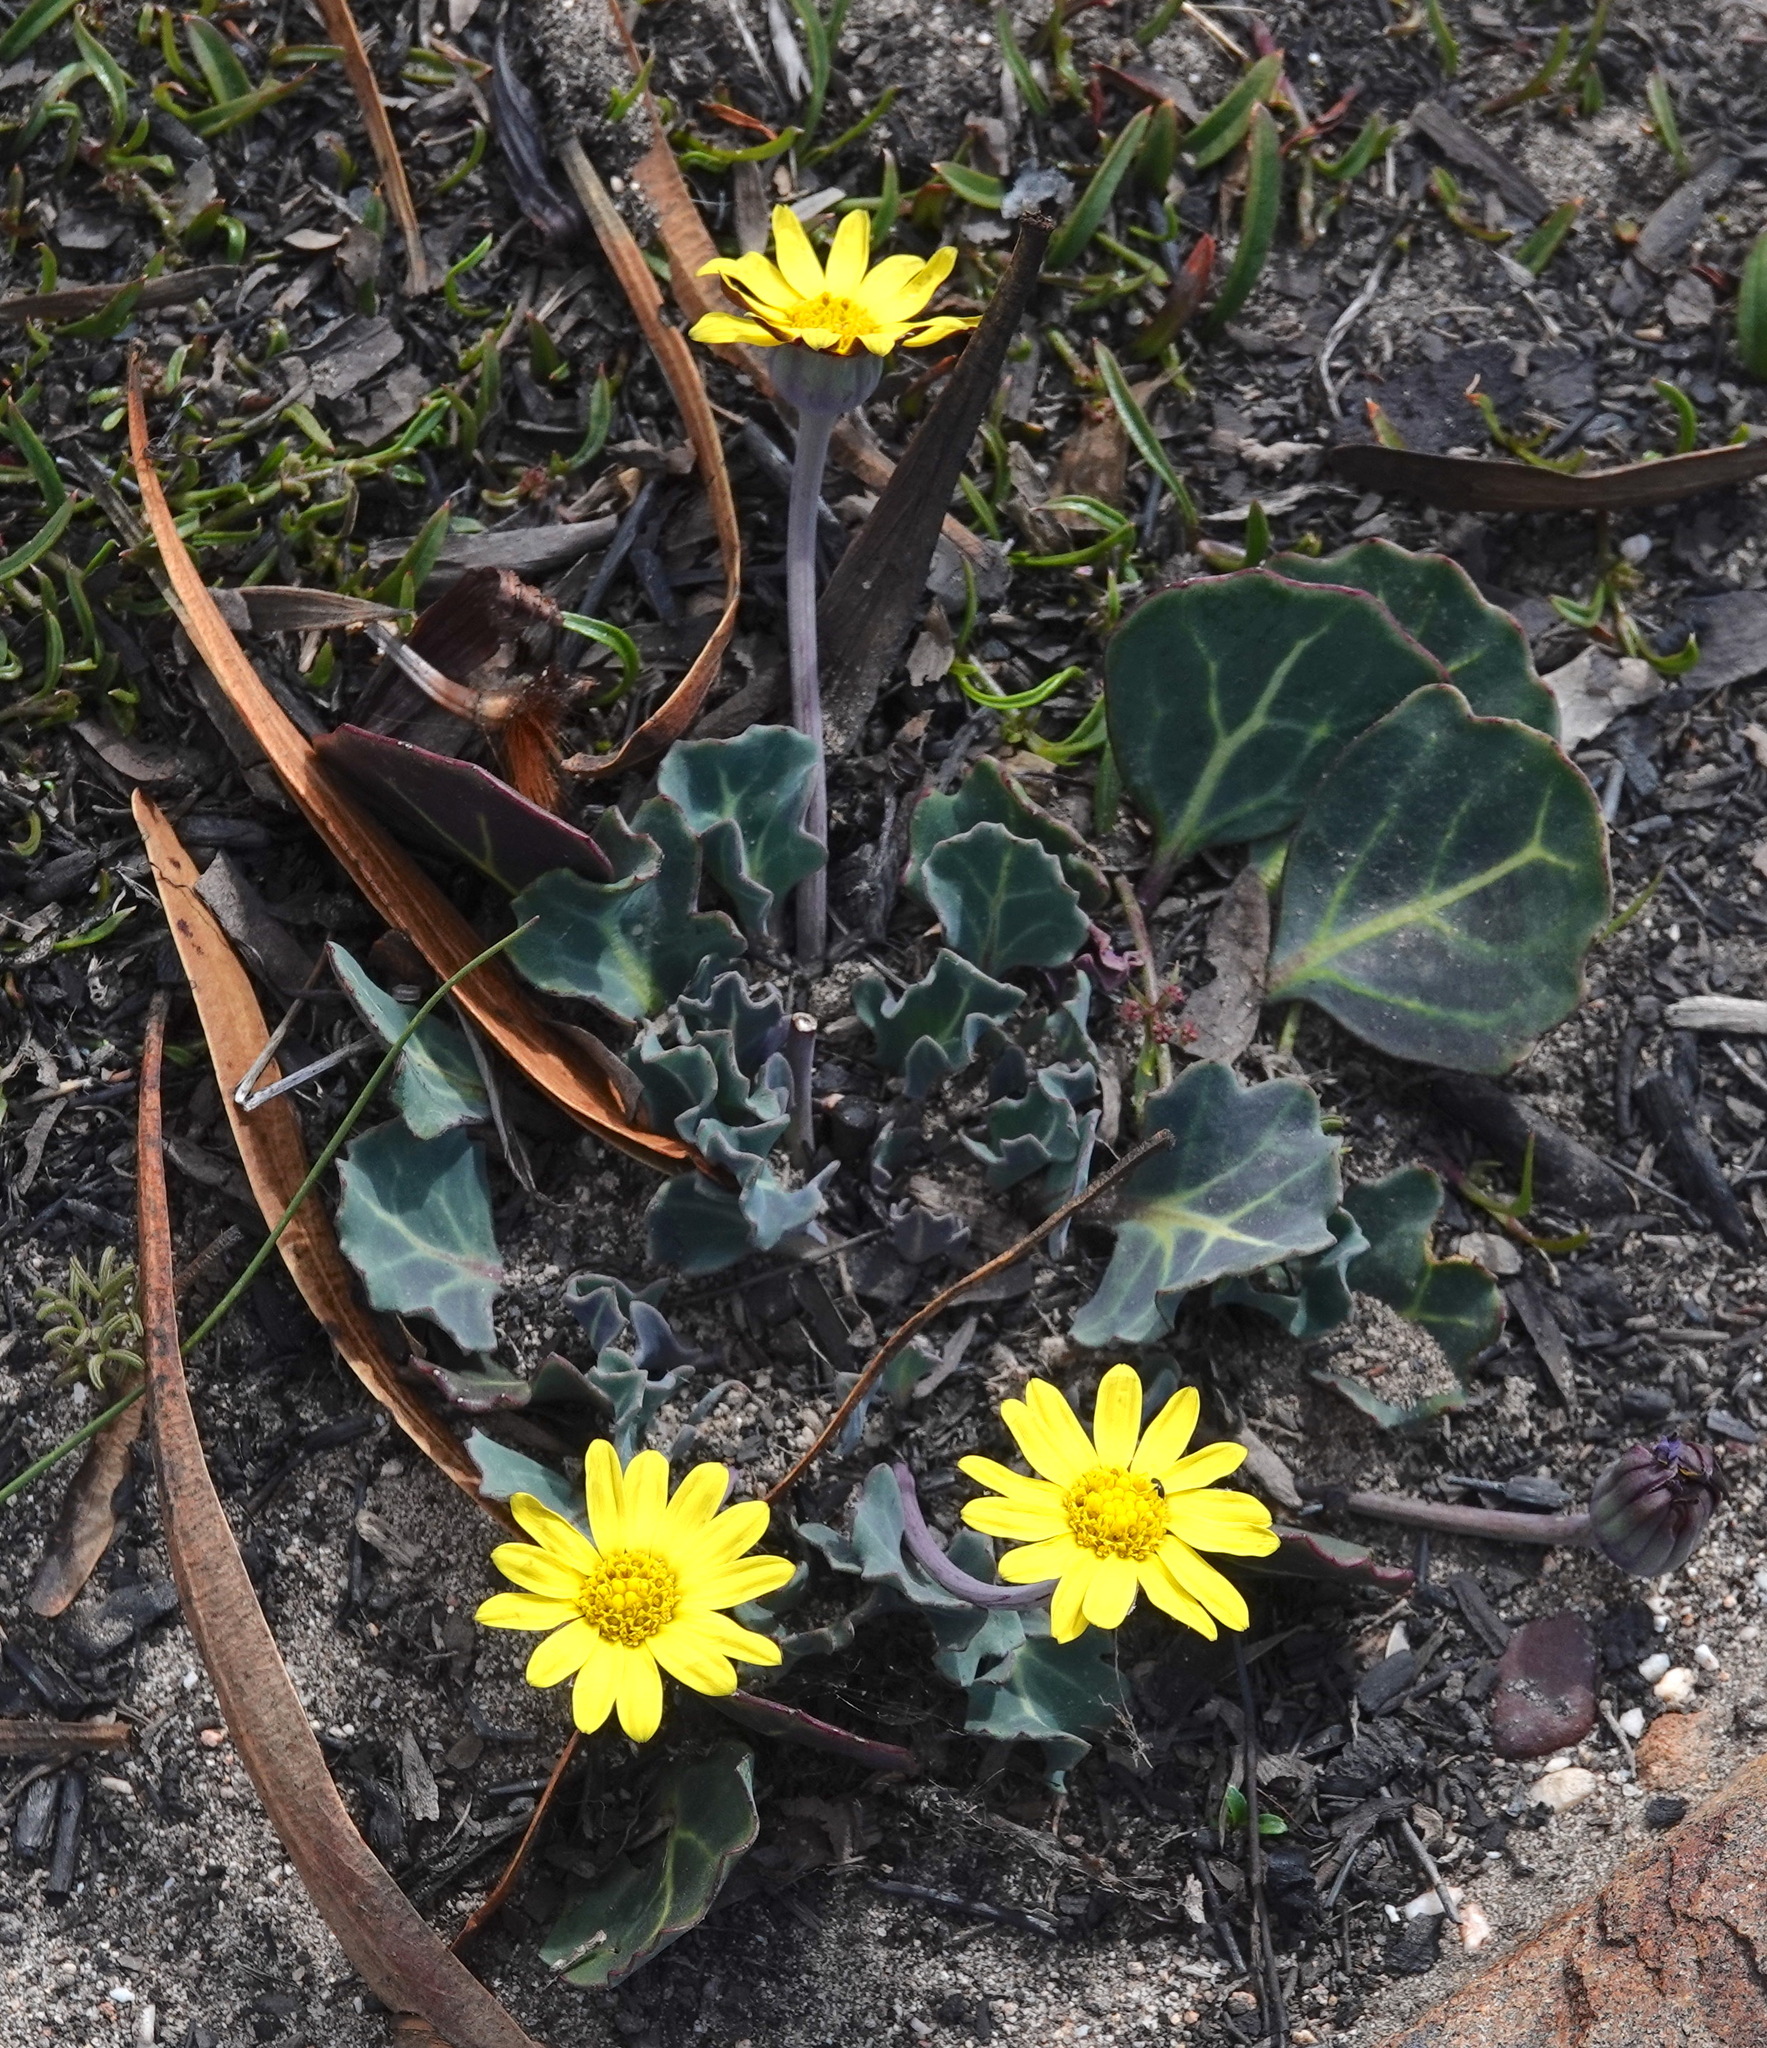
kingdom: Plantae
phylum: Tracheophyta
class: Magnoliopsida
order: Asterales
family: Asteraceae
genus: Othonna
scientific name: Othonna hederifolia
